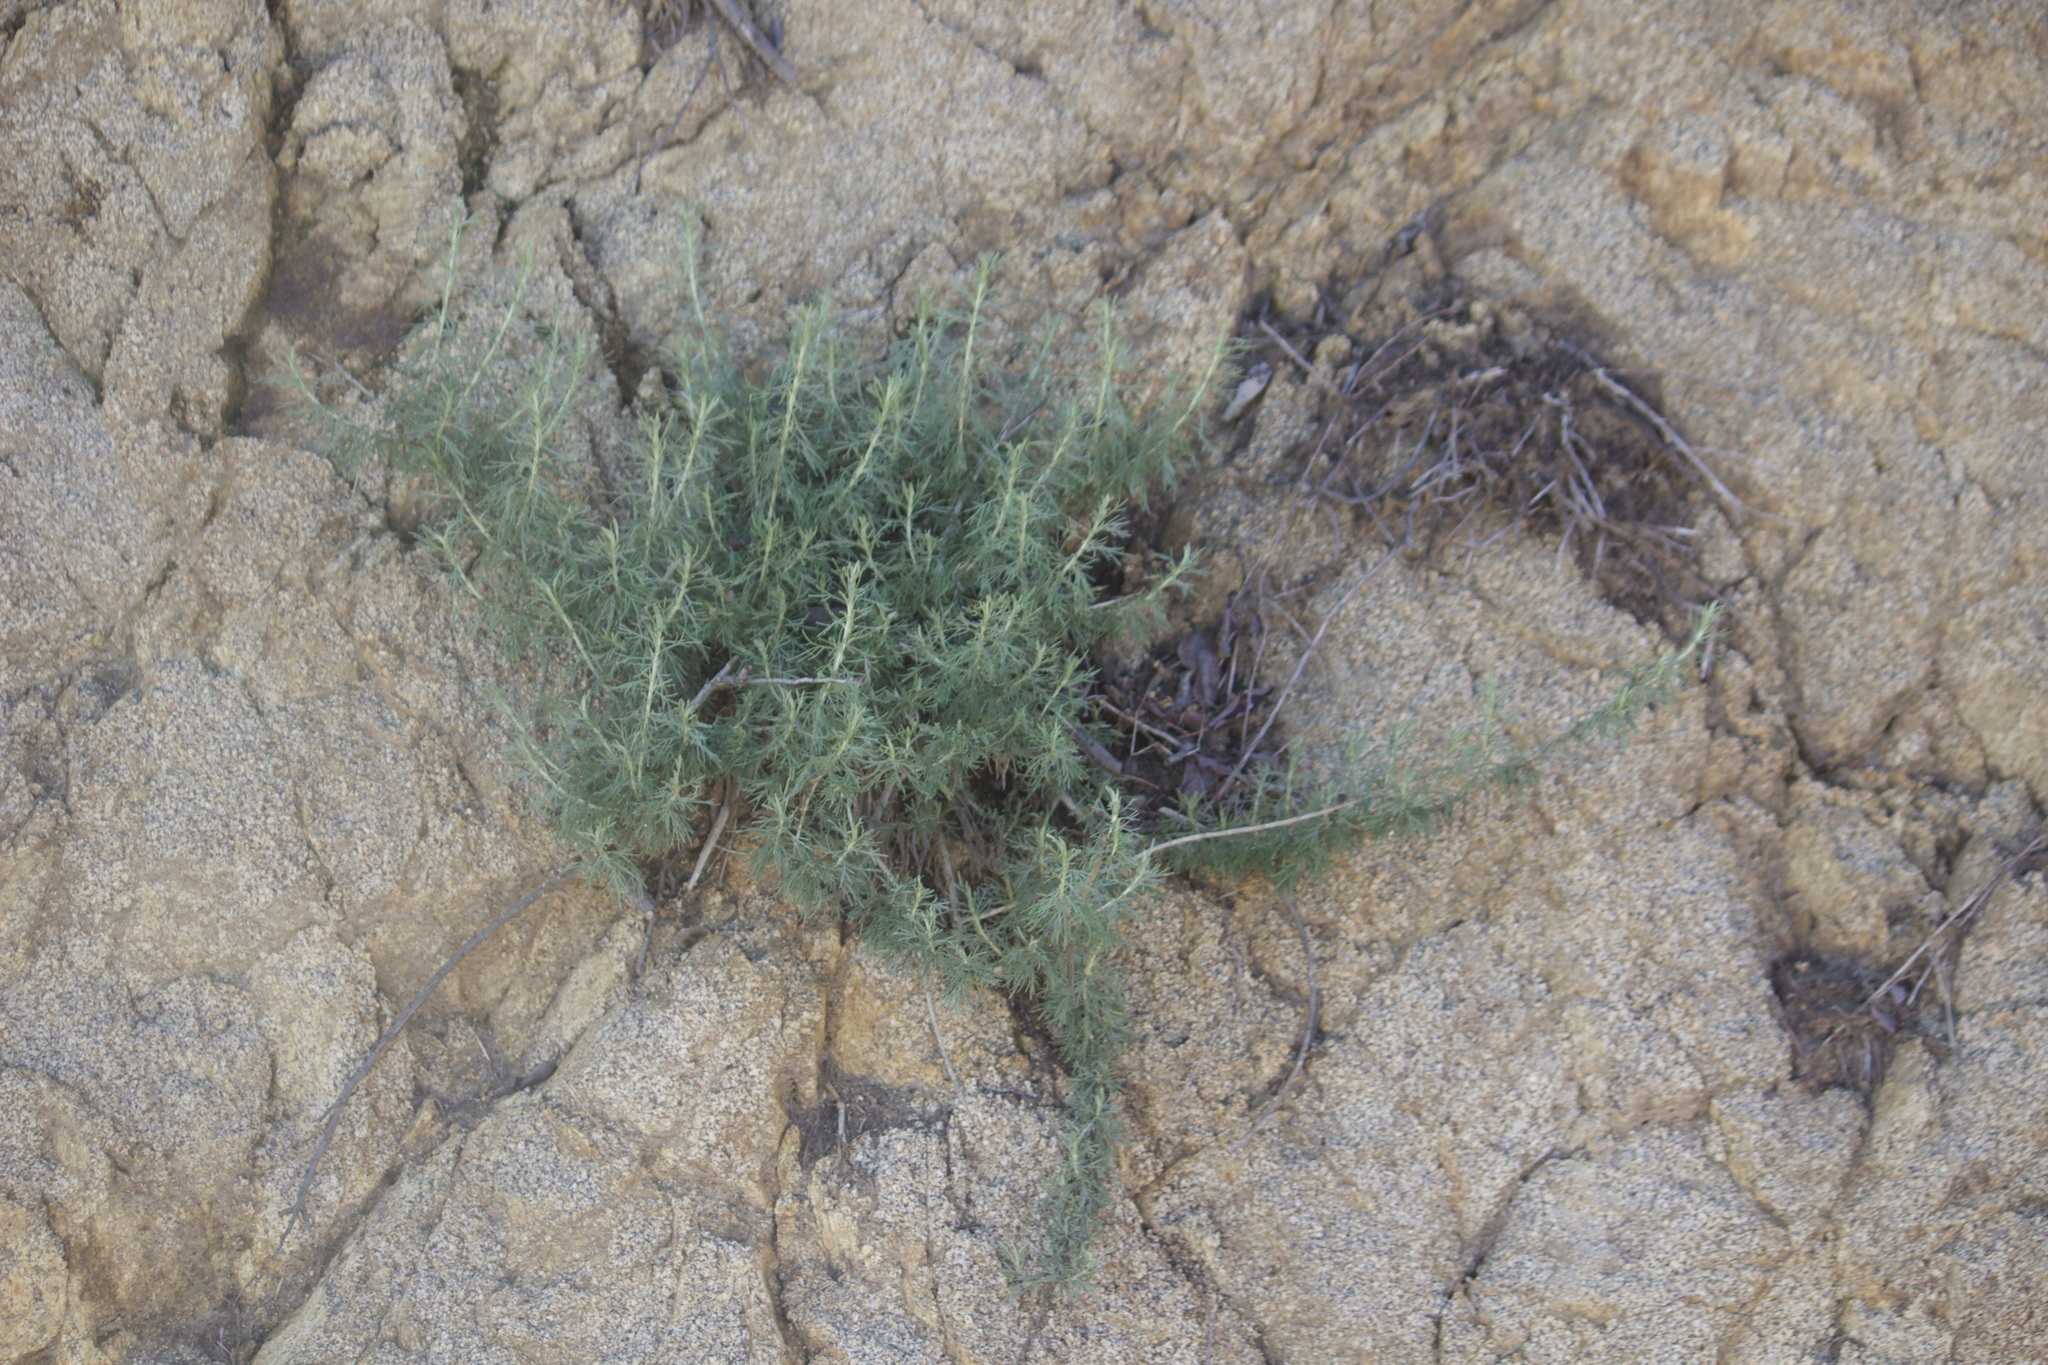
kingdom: Plantae
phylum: Tracheophyta
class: Magnoliopsida
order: Asterales
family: Asteraceae
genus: Artemisia
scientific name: Artemisia californica
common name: California sagebrush
